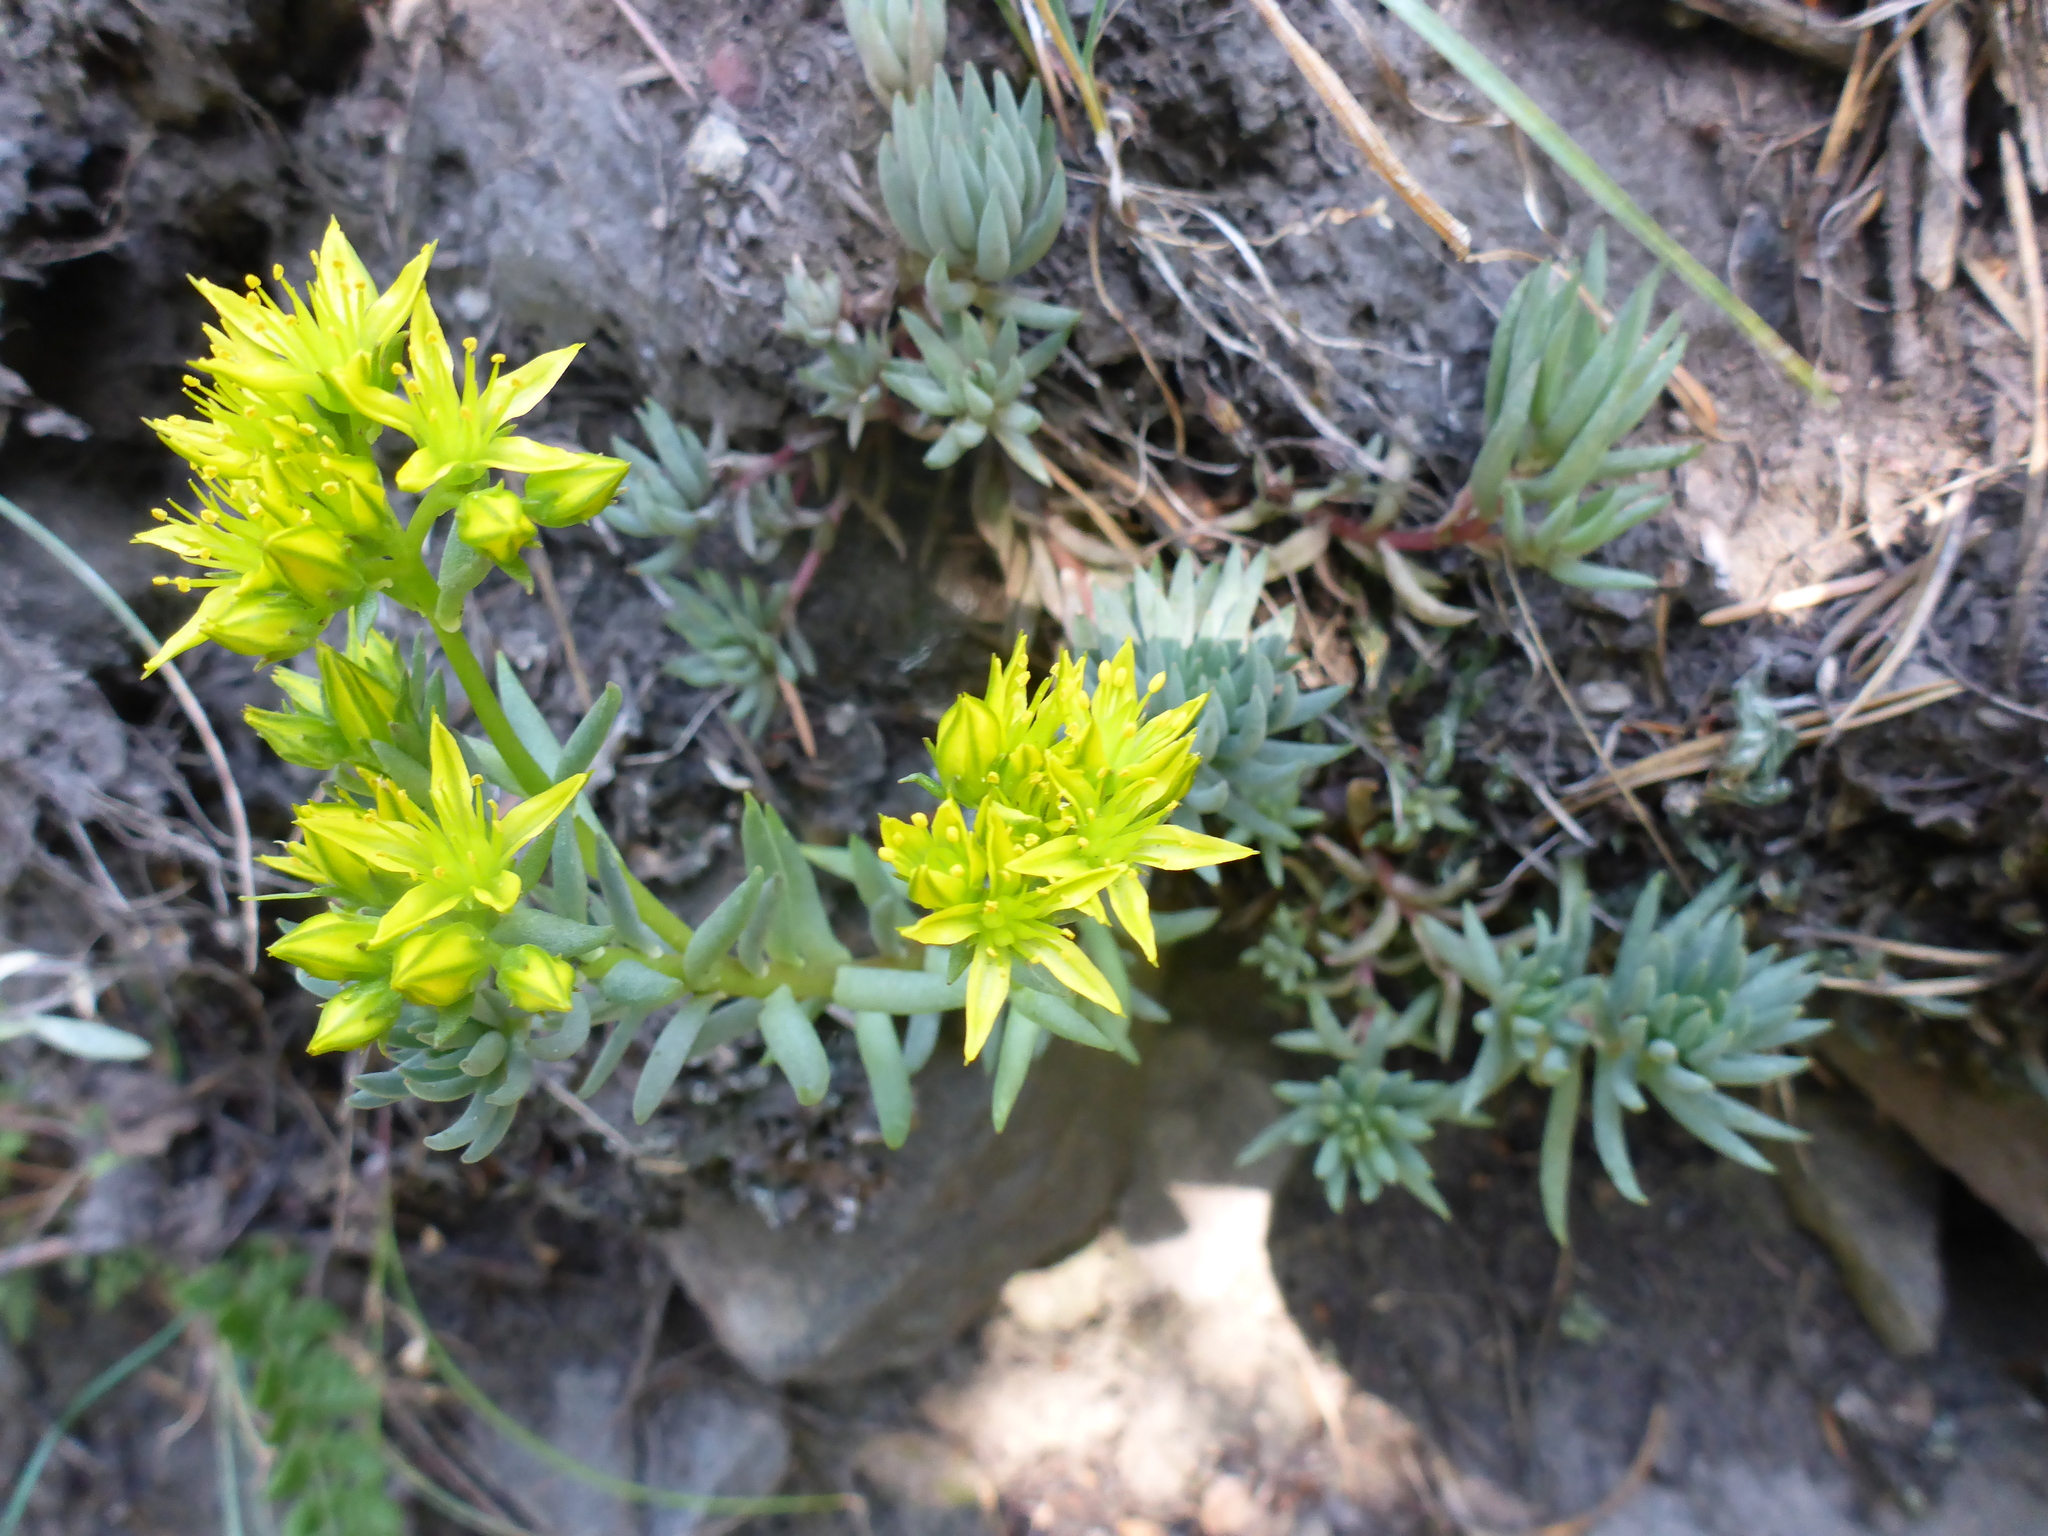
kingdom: Plantae
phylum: Tracheophyta
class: Magnoliopsida
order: Saxifragales
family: Crassulaceae
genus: Sedum
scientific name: Sedum lanceolatum
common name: Common stonecrop
